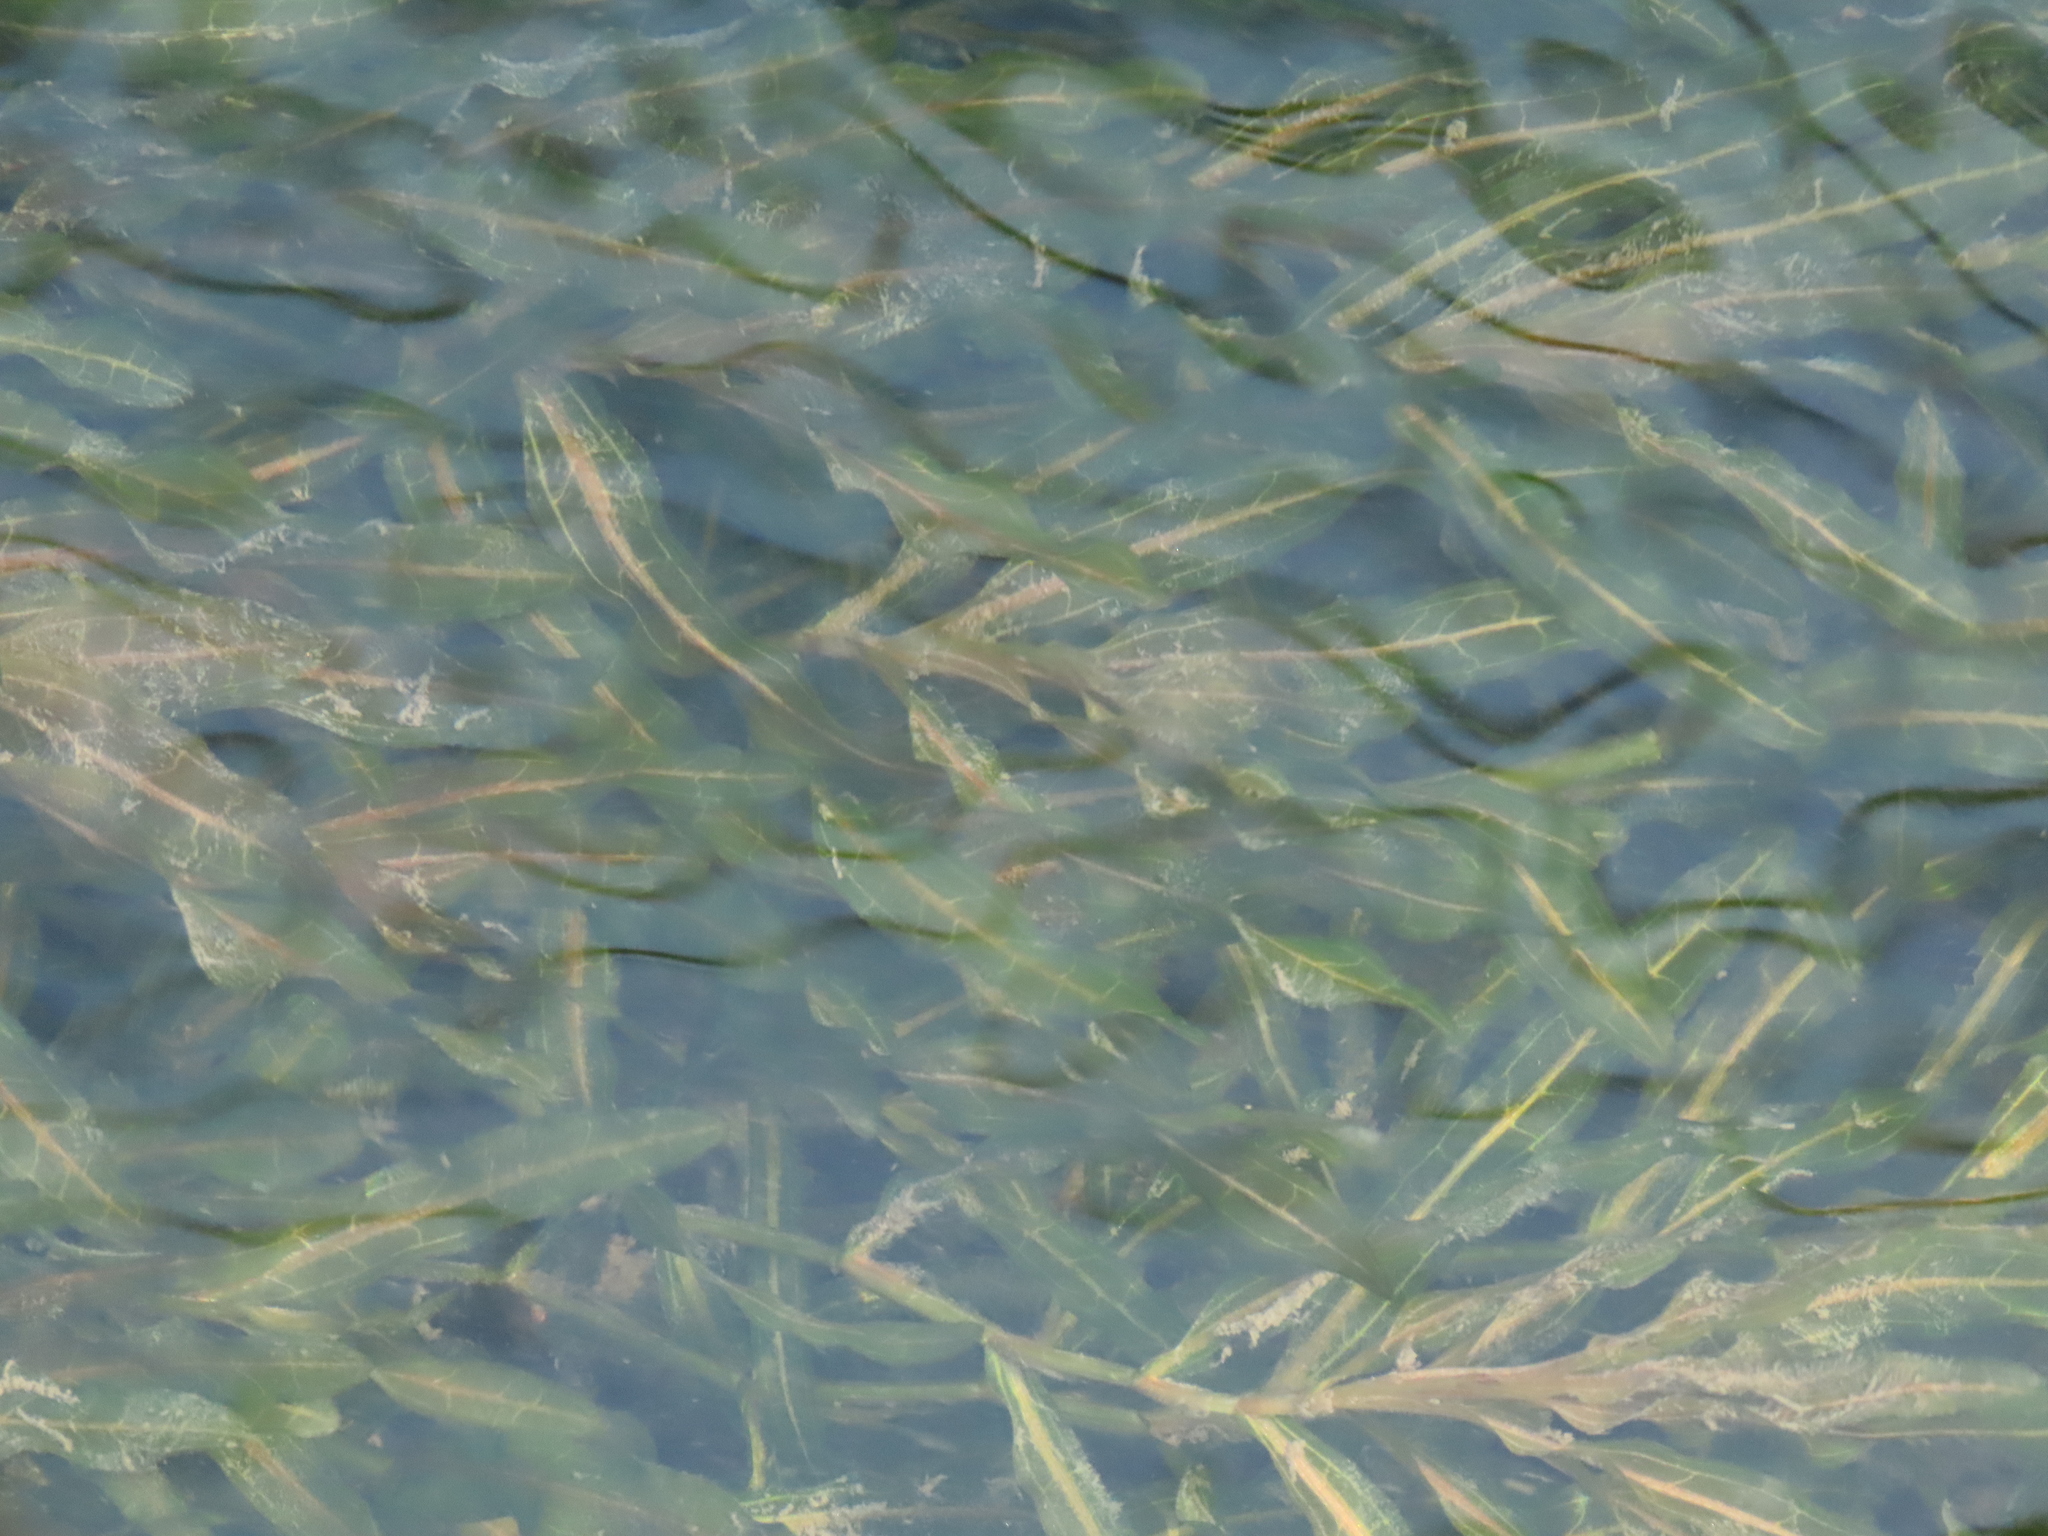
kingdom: Plantae
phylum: Tracheophyta
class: Liliopsida
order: Alismatales
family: Potamogetonaceae
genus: Potamogeton
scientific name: Potamogeton crispus
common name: Curled pondweed
